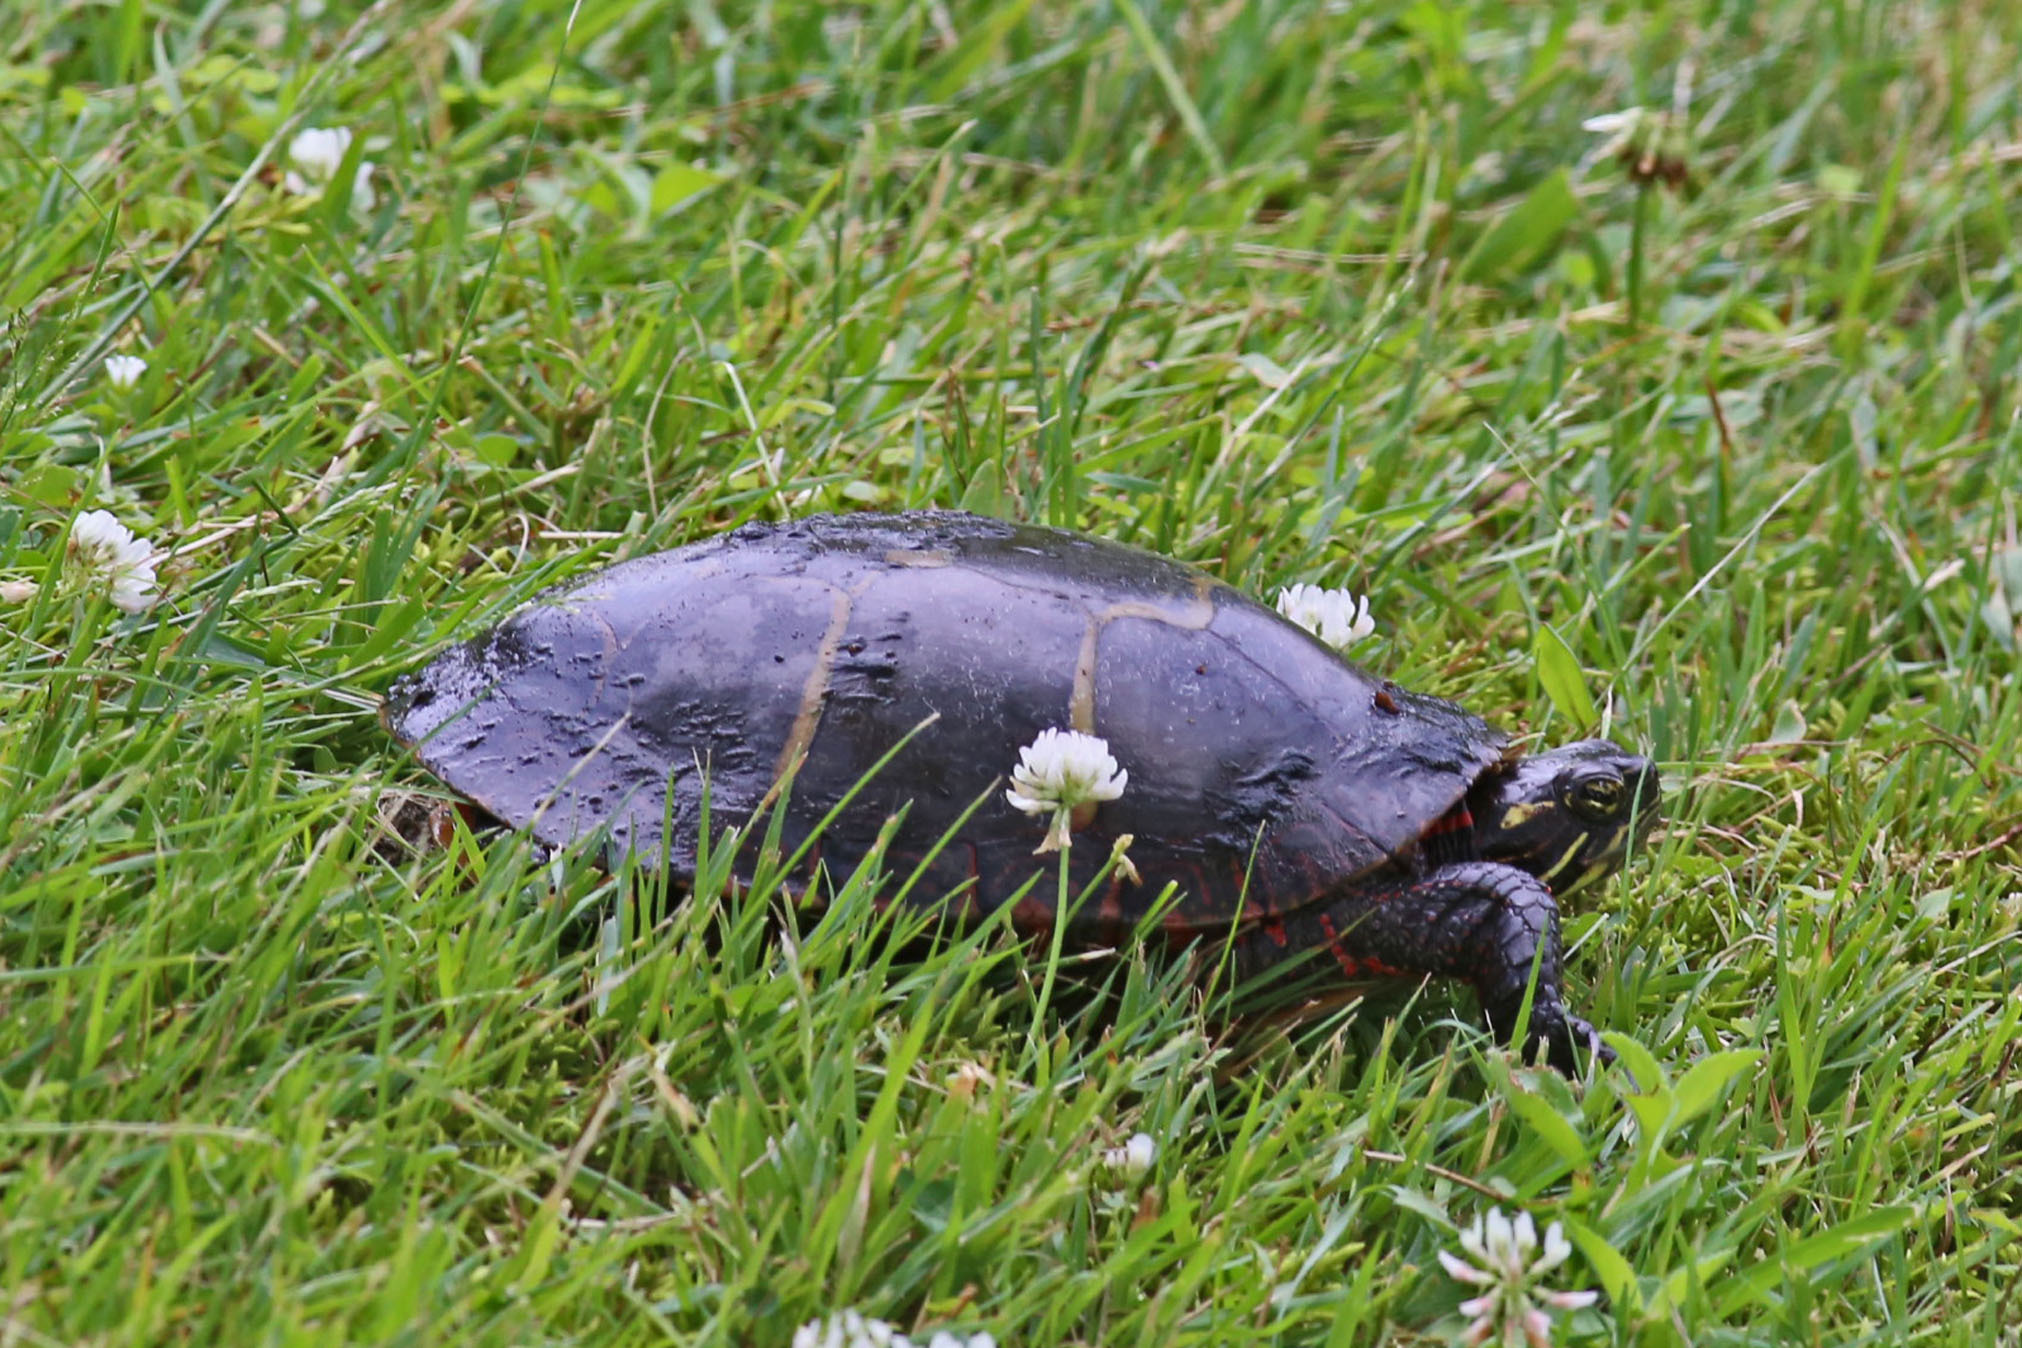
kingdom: Animalia
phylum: Chordata
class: Testudines
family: Emydidae
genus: Chrysemys
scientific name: Chrysemys picta
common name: Painted turtle
